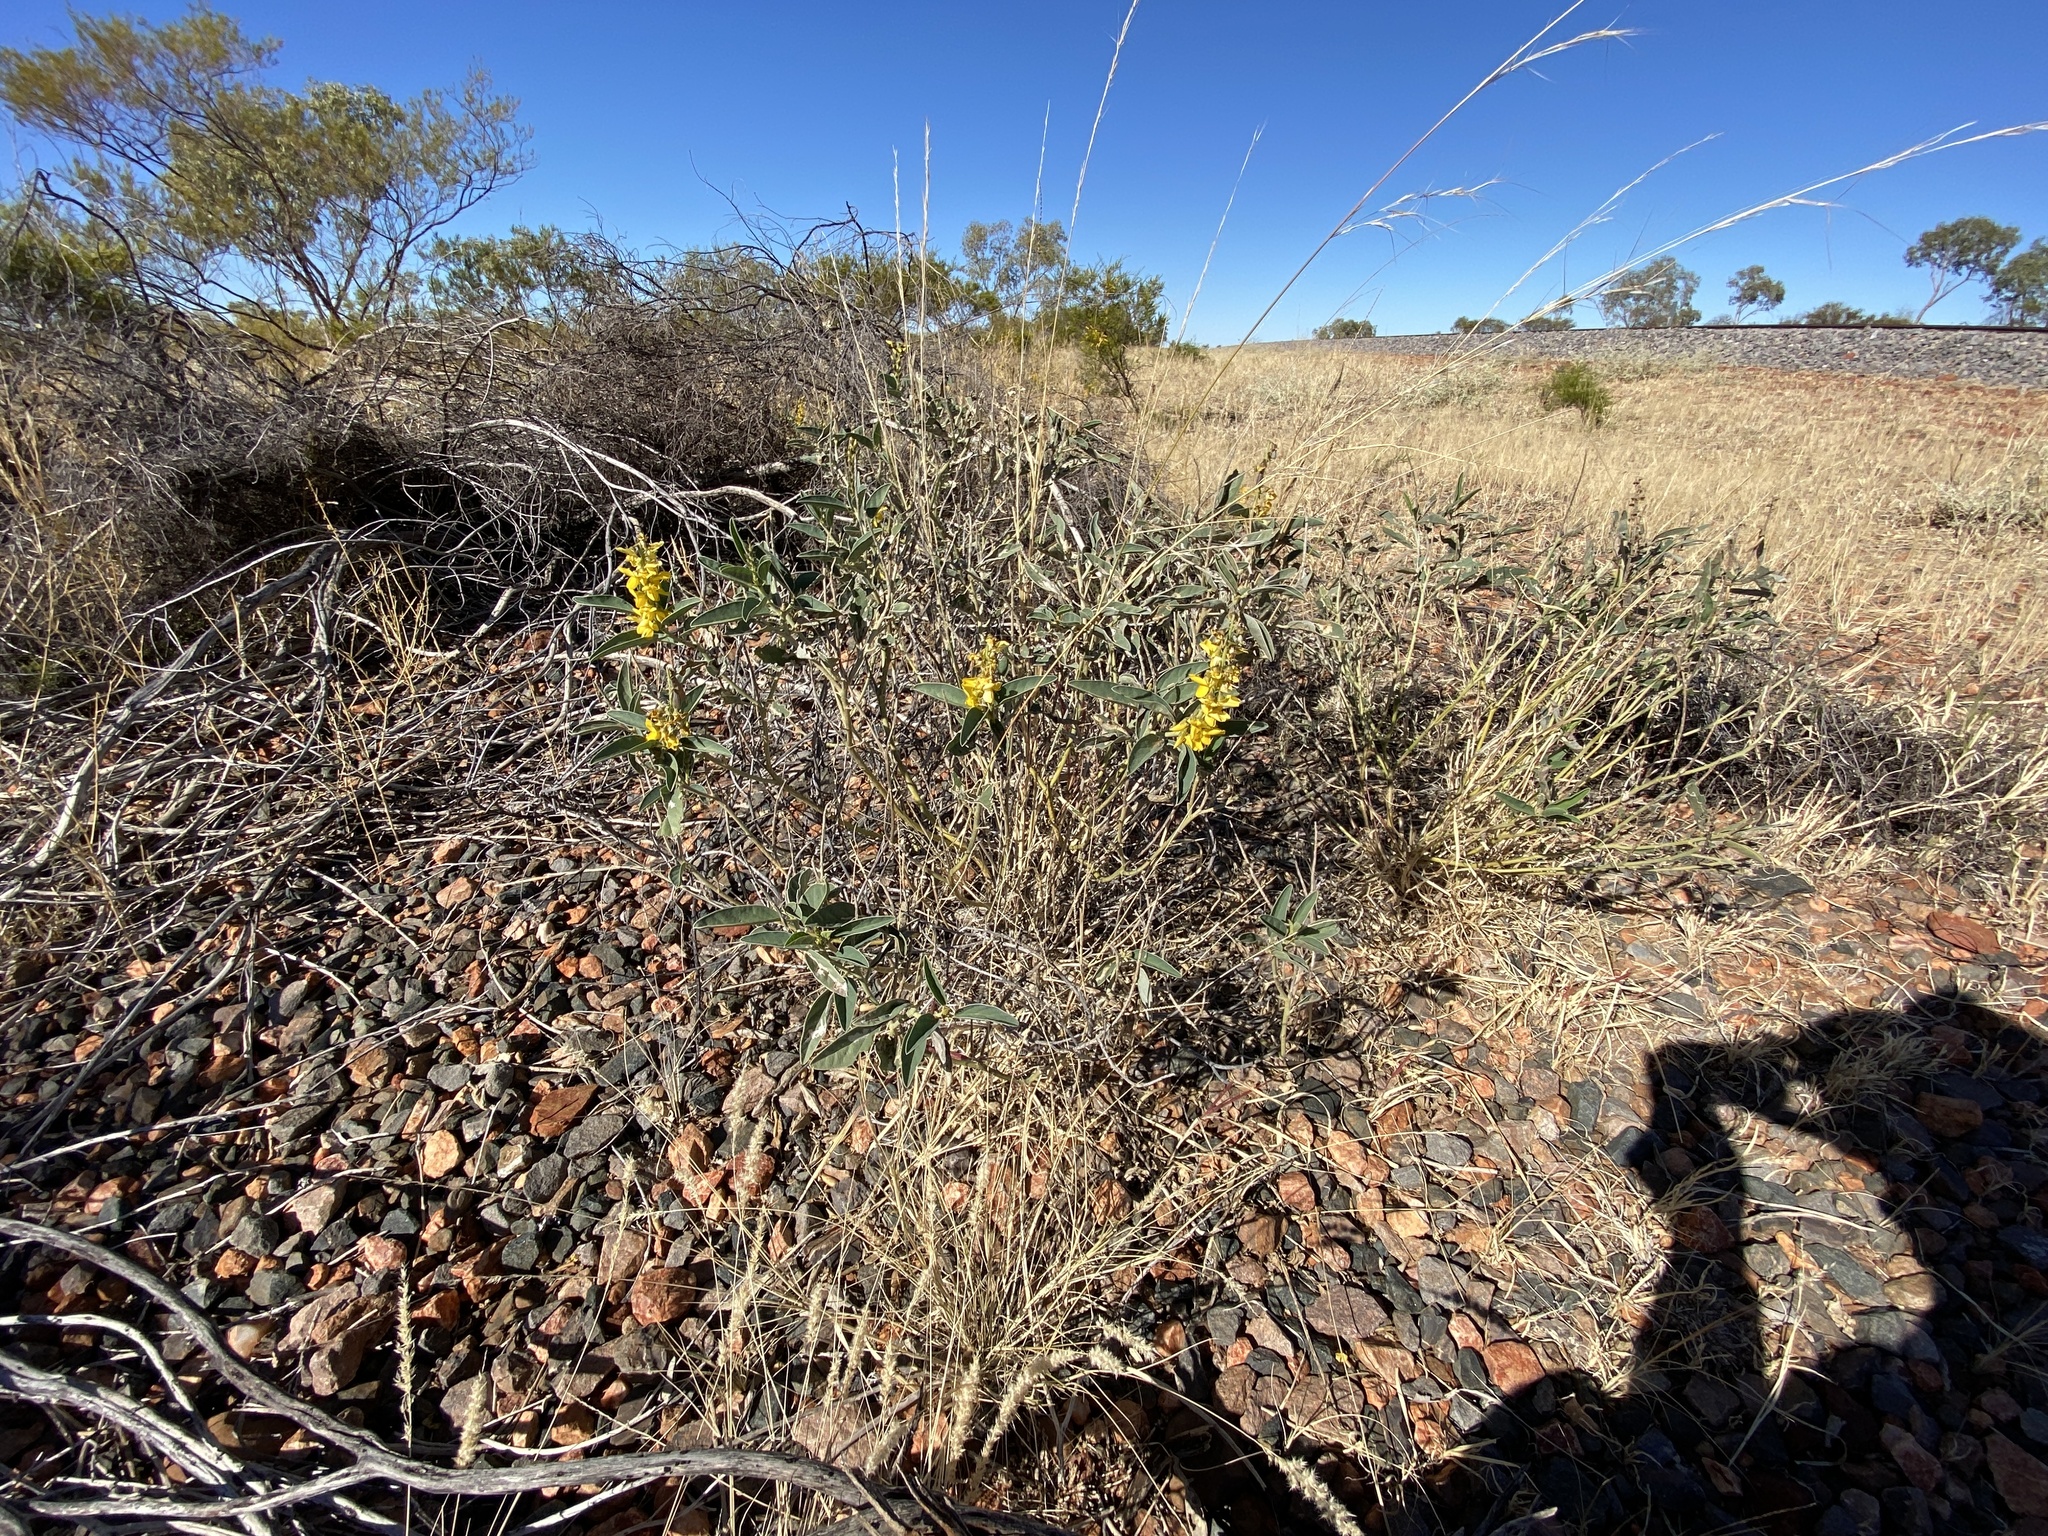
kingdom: Plantae
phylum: Tracheophyta
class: Magnoliopsida
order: Fabales
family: Fabaceae
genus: Crotalaria
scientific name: Crotalaria novae-hollandiae
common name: New holland rattlepod
